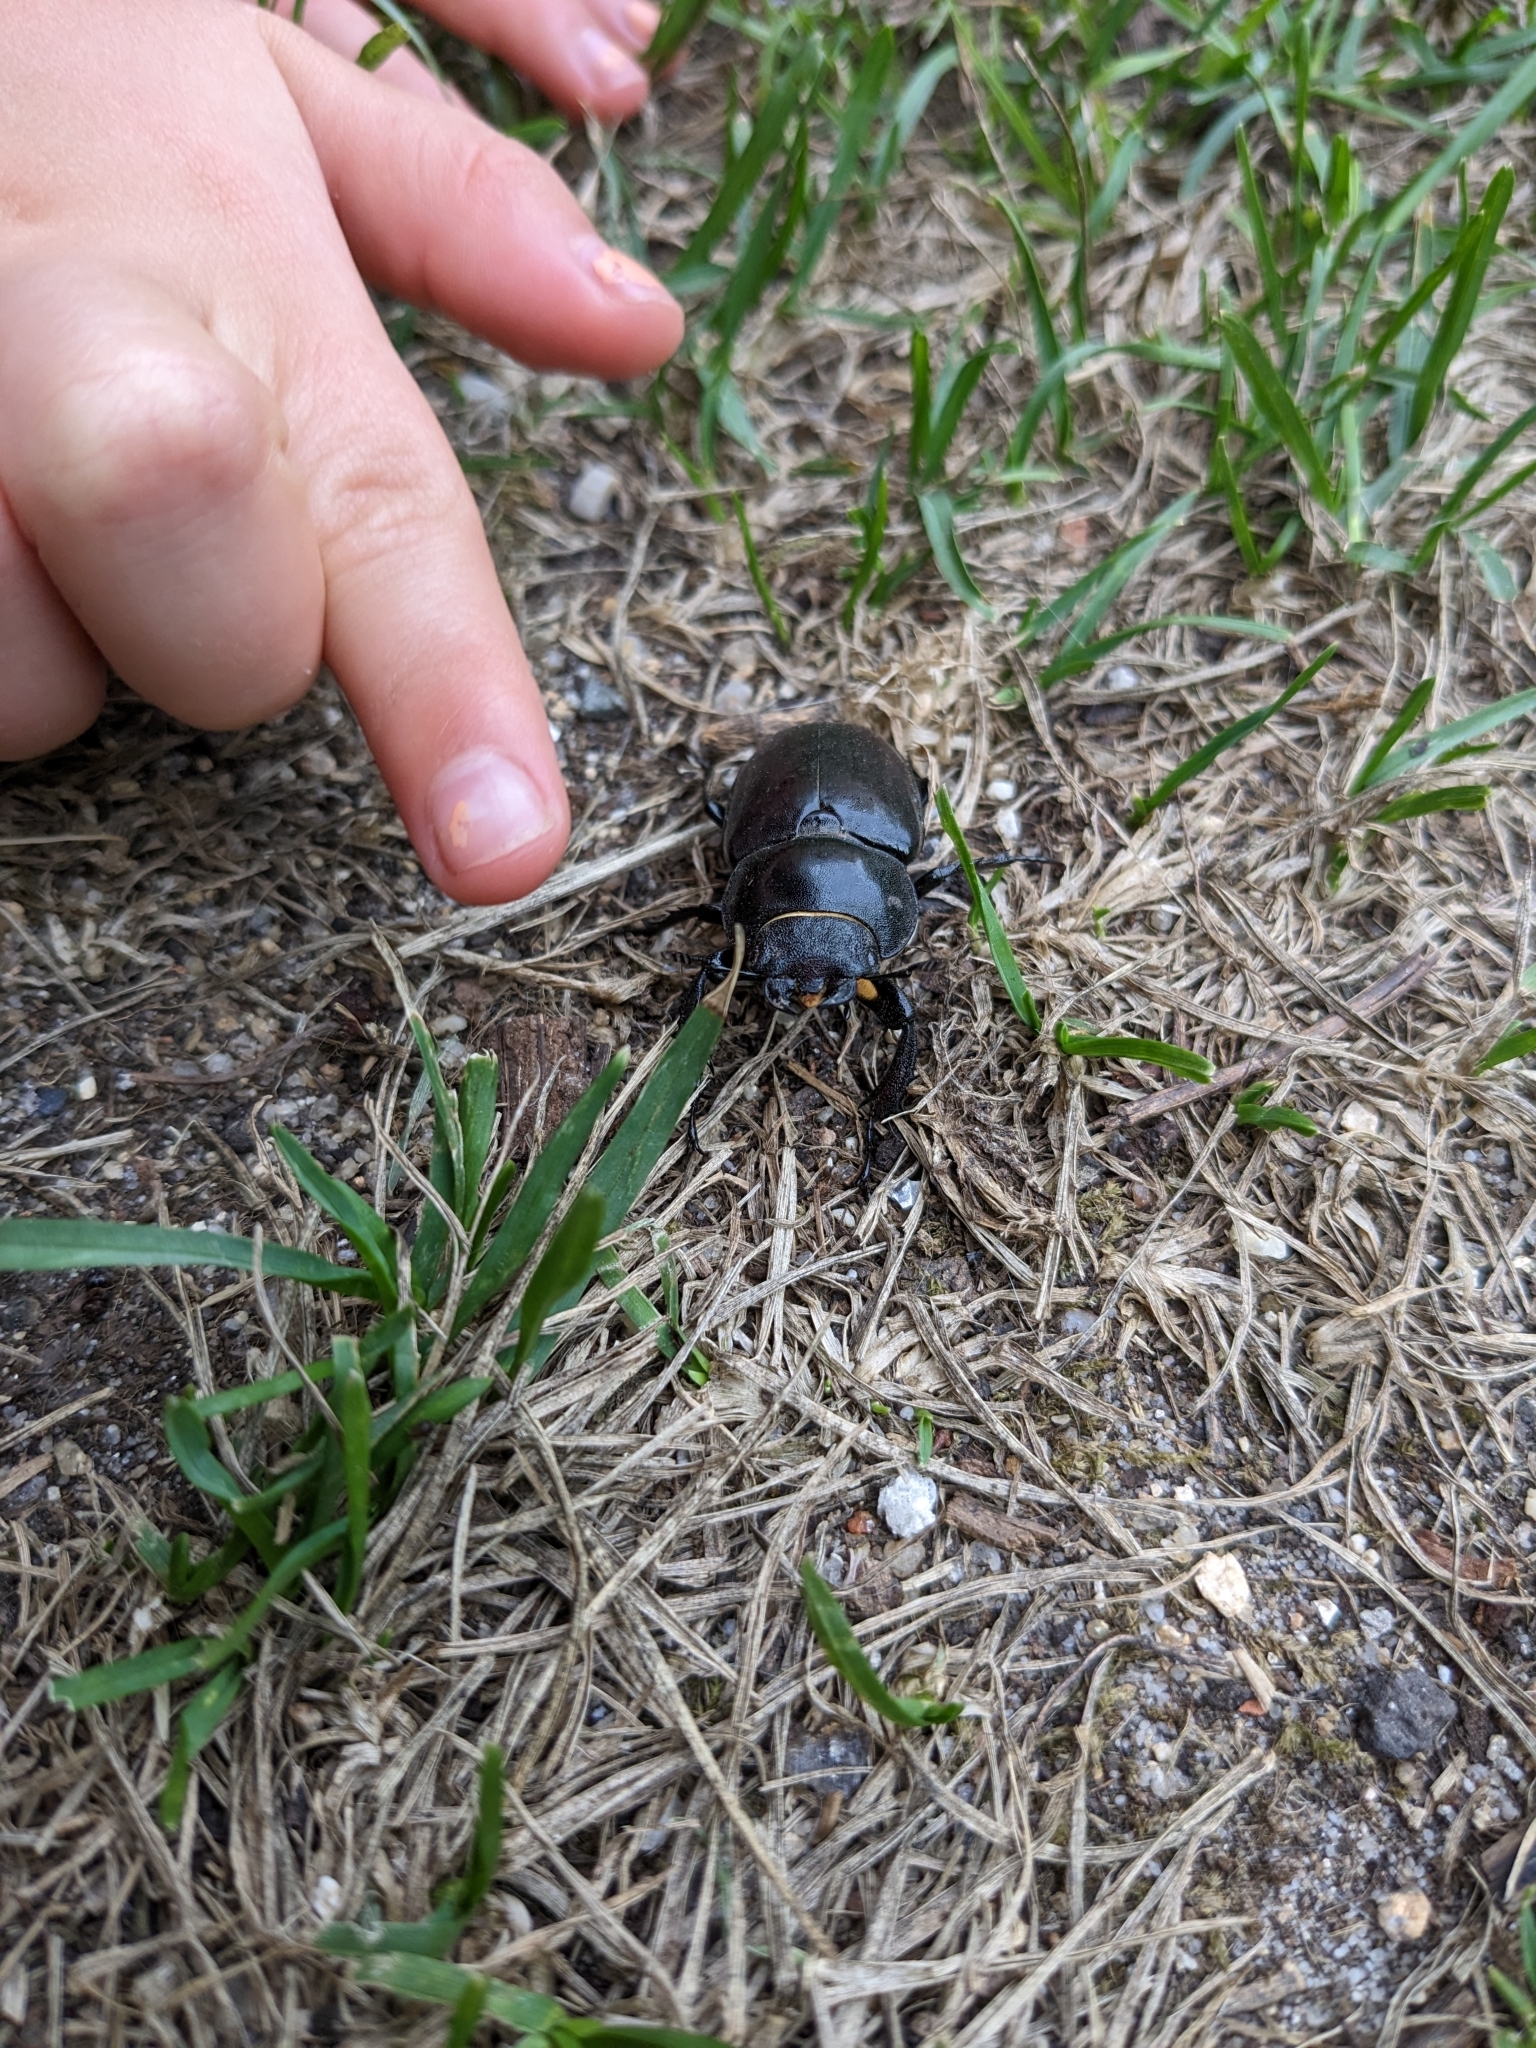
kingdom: Animalia
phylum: Arthropoda
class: Insecta
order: Coleoptera
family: Lucanidae
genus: Lucanus
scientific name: Lucanus cervus
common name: Stag beetle
